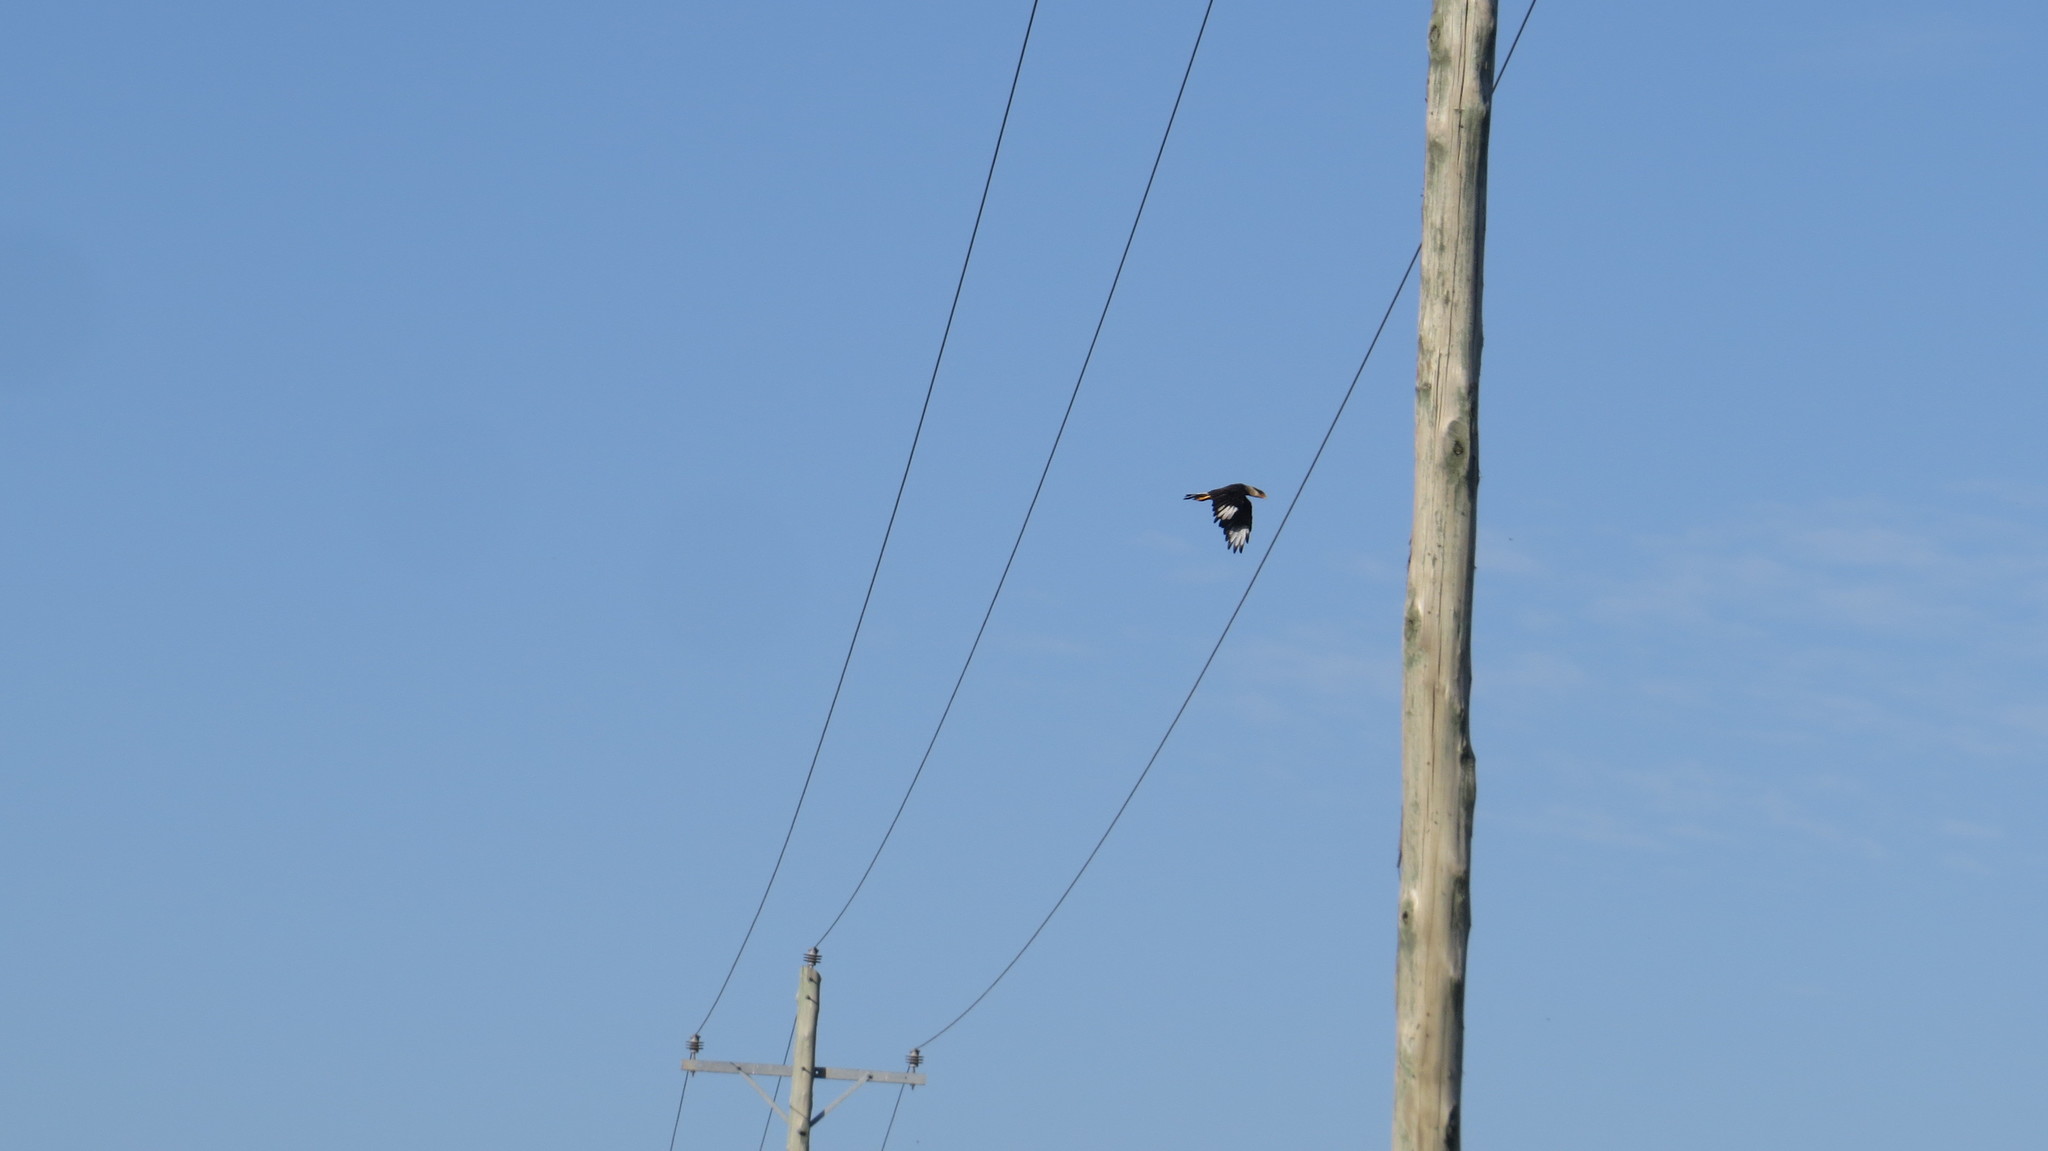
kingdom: Animalia
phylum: Chordata
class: Aves
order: Falconiformes
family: Falconidae
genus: Caracara
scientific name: Caracara plancus
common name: Southern caracara
